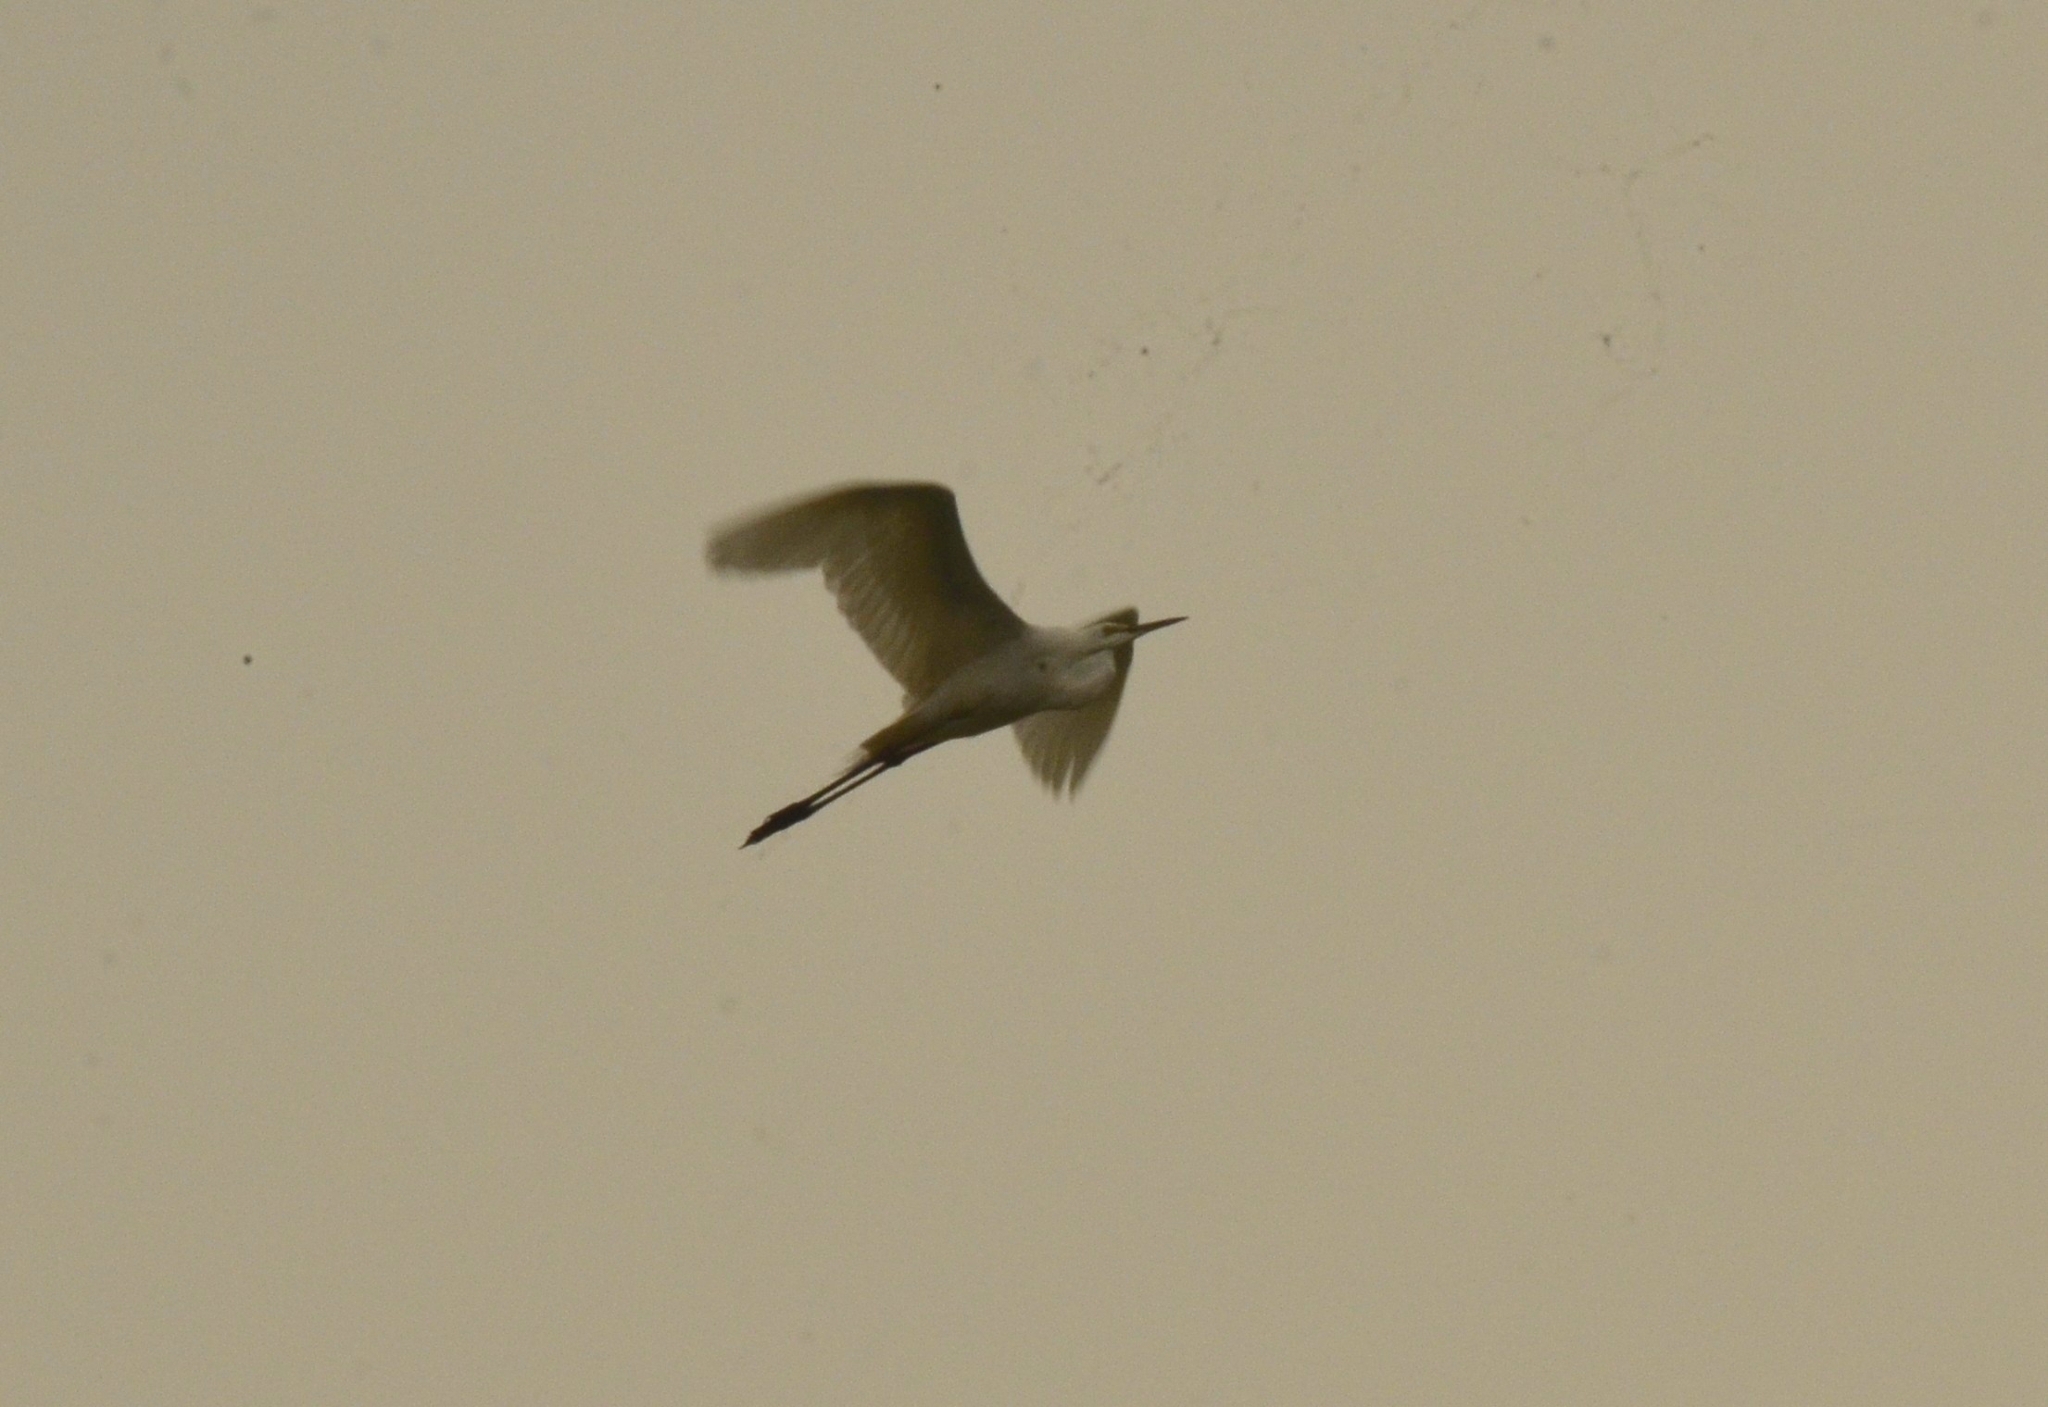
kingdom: Animalia
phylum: Chordata
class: Aves
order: Pelecaniformes
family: Ardeidae
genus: Egretta
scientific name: Egretta garzetta
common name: Little egret
